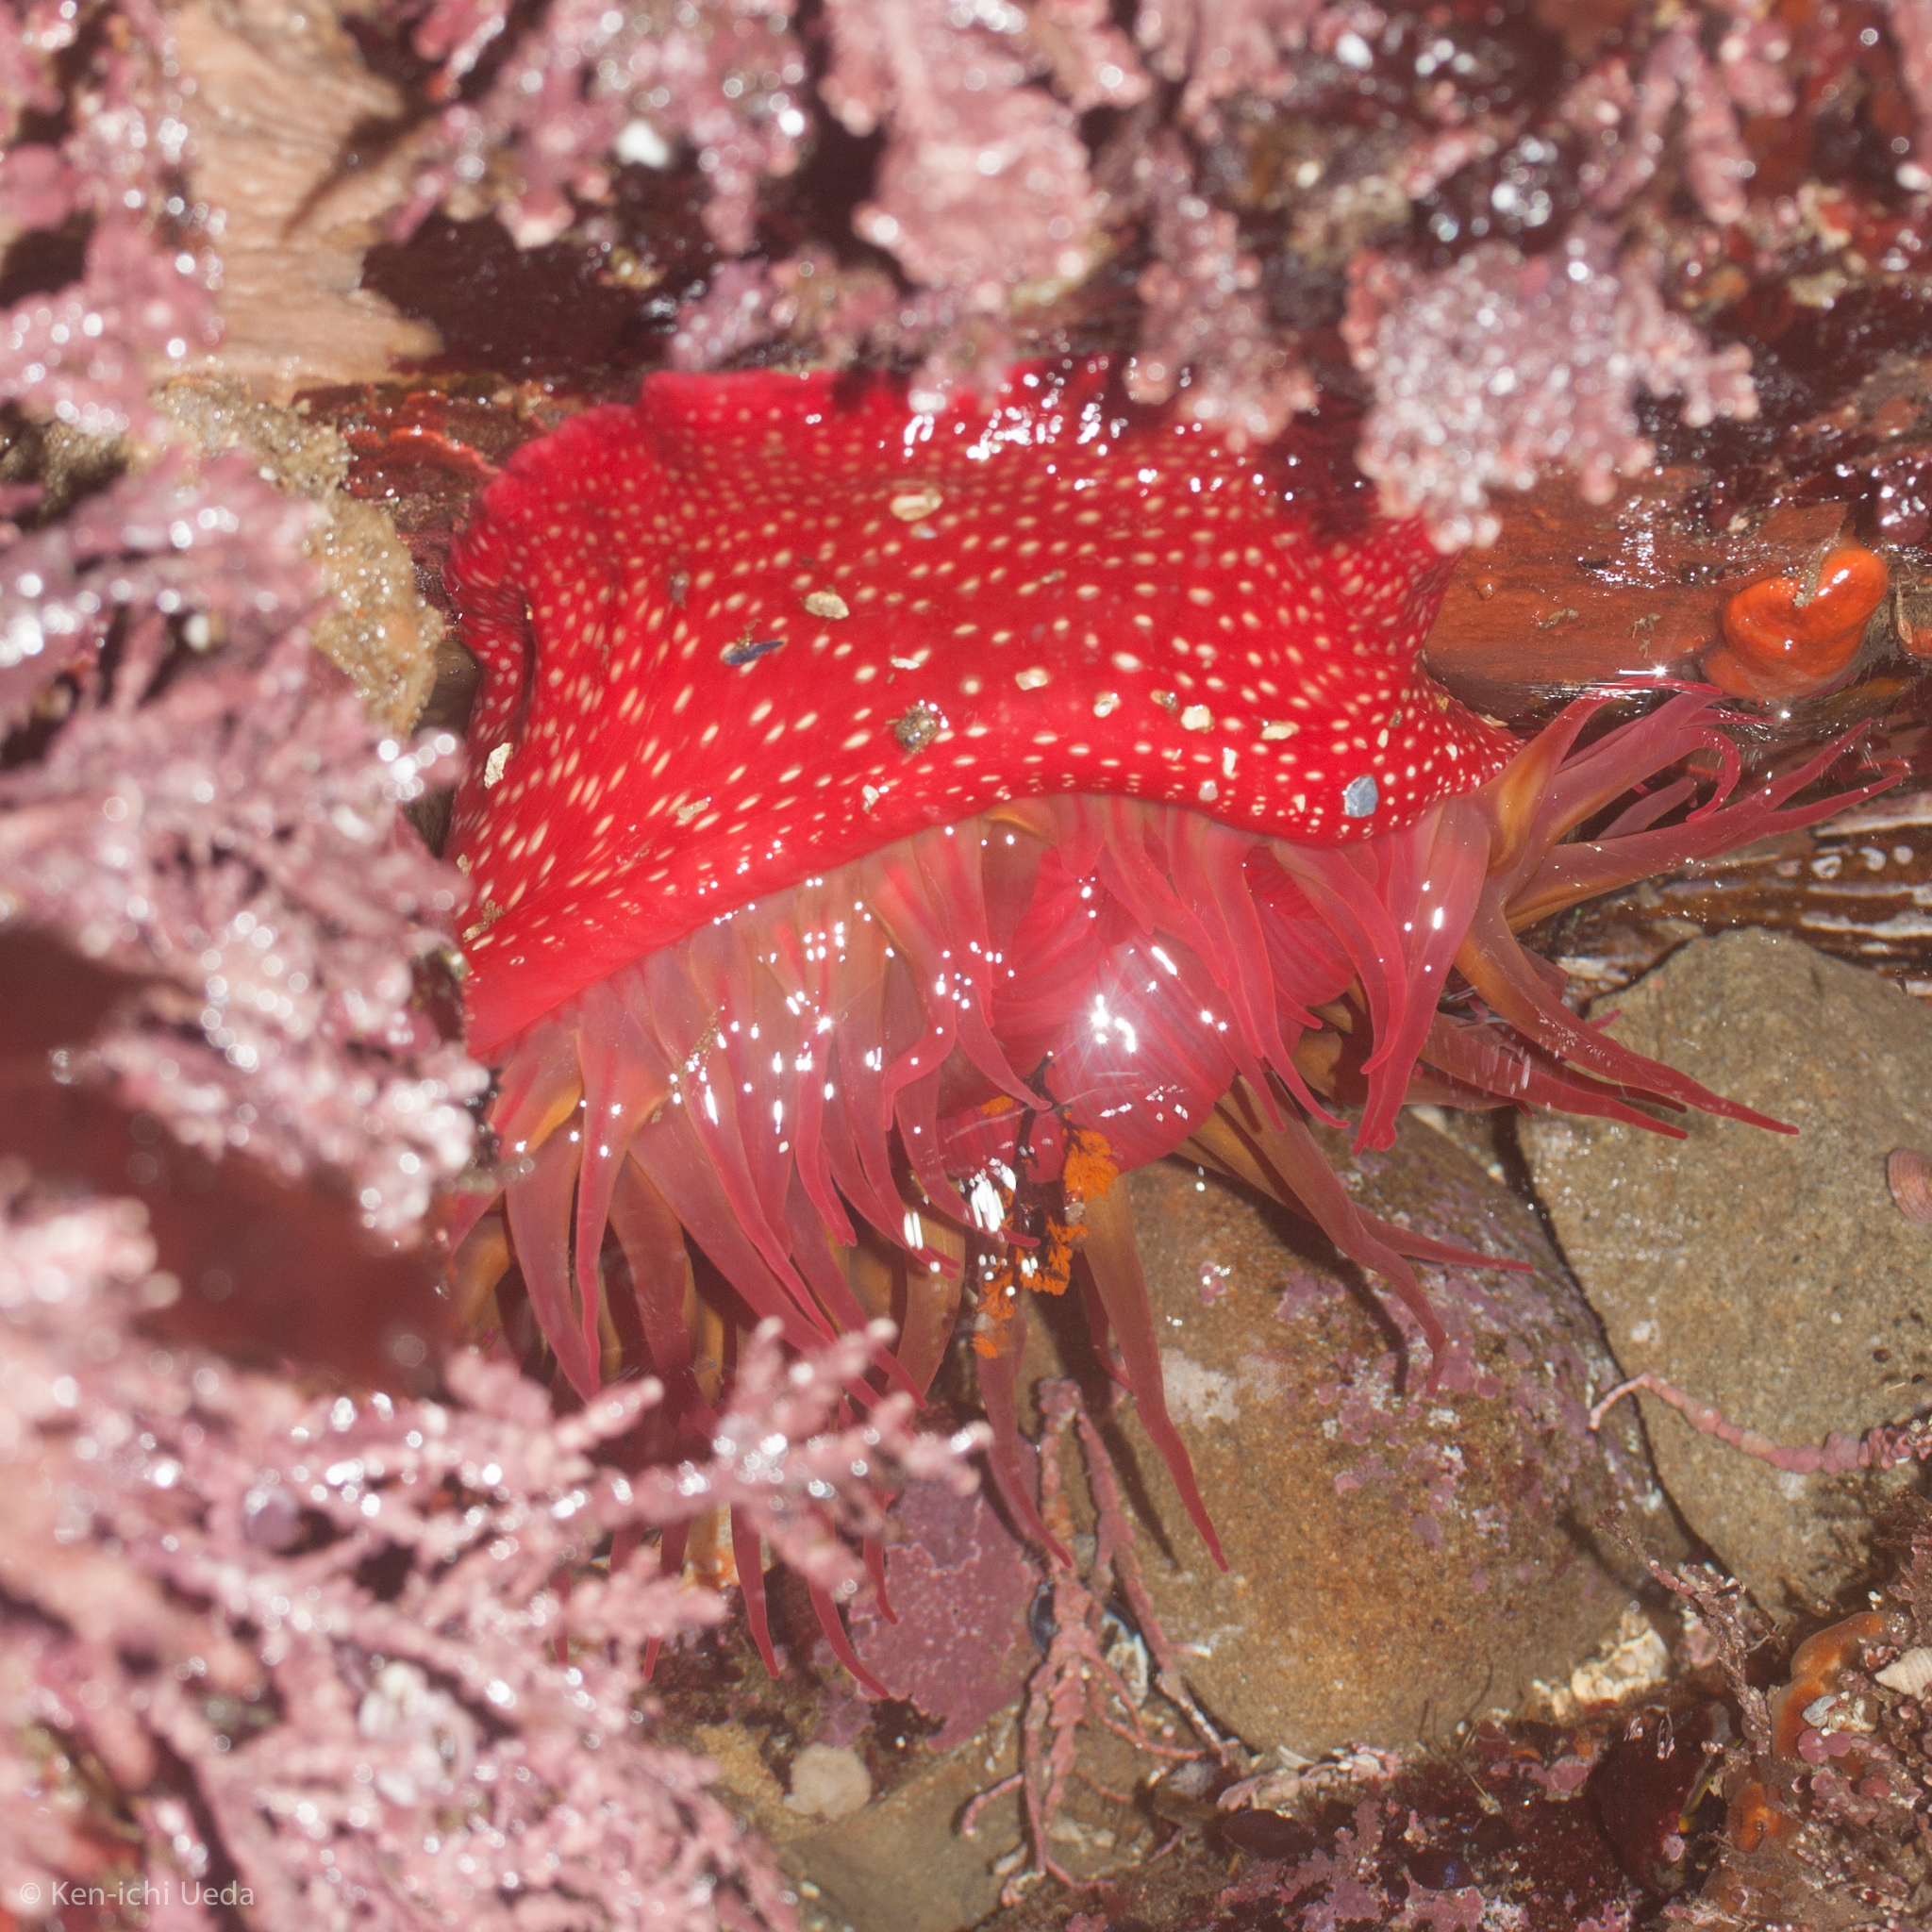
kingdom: Animalia
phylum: Cnidaria
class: Anthozoa
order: Actiniaria
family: Actiniidae
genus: Cribrinopsis
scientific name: Cribrinopsis albopunctata
